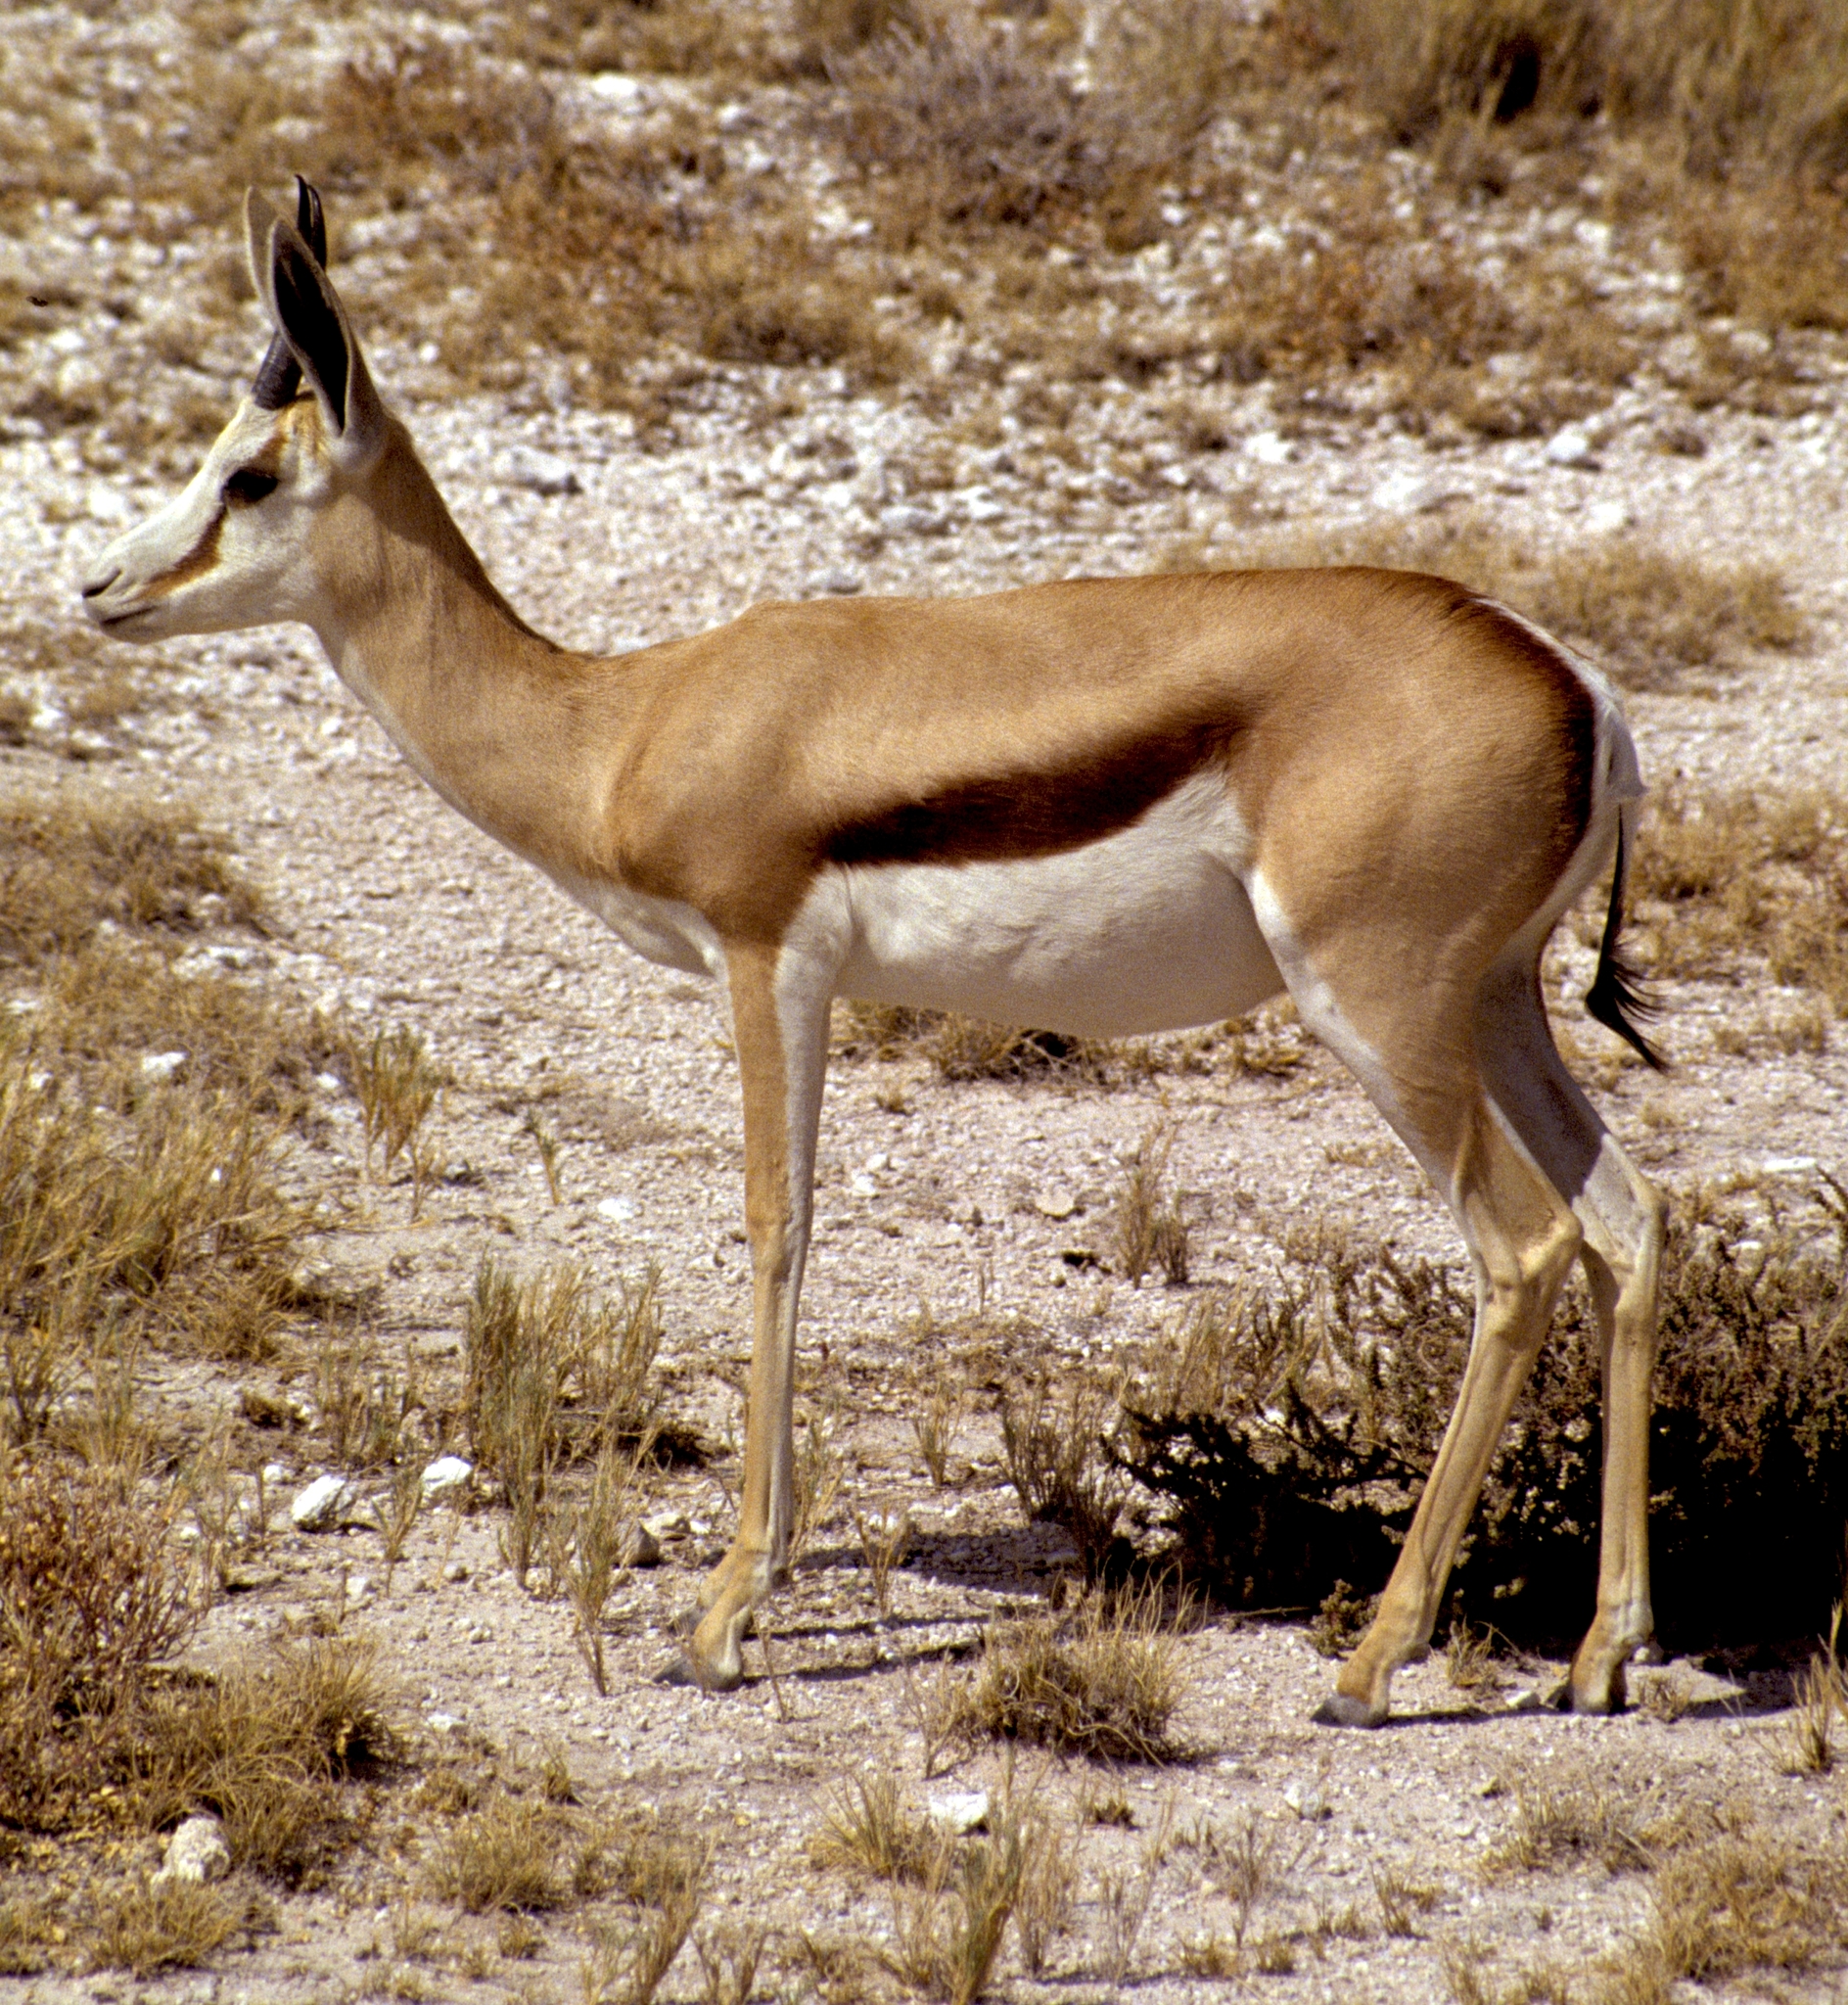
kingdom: Animalia
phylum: Chordata
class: Mammalia
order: Artiodactyla
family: Bovidae
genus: Antidorcas
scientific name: Antidorcas marsupialis
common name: Springbok
